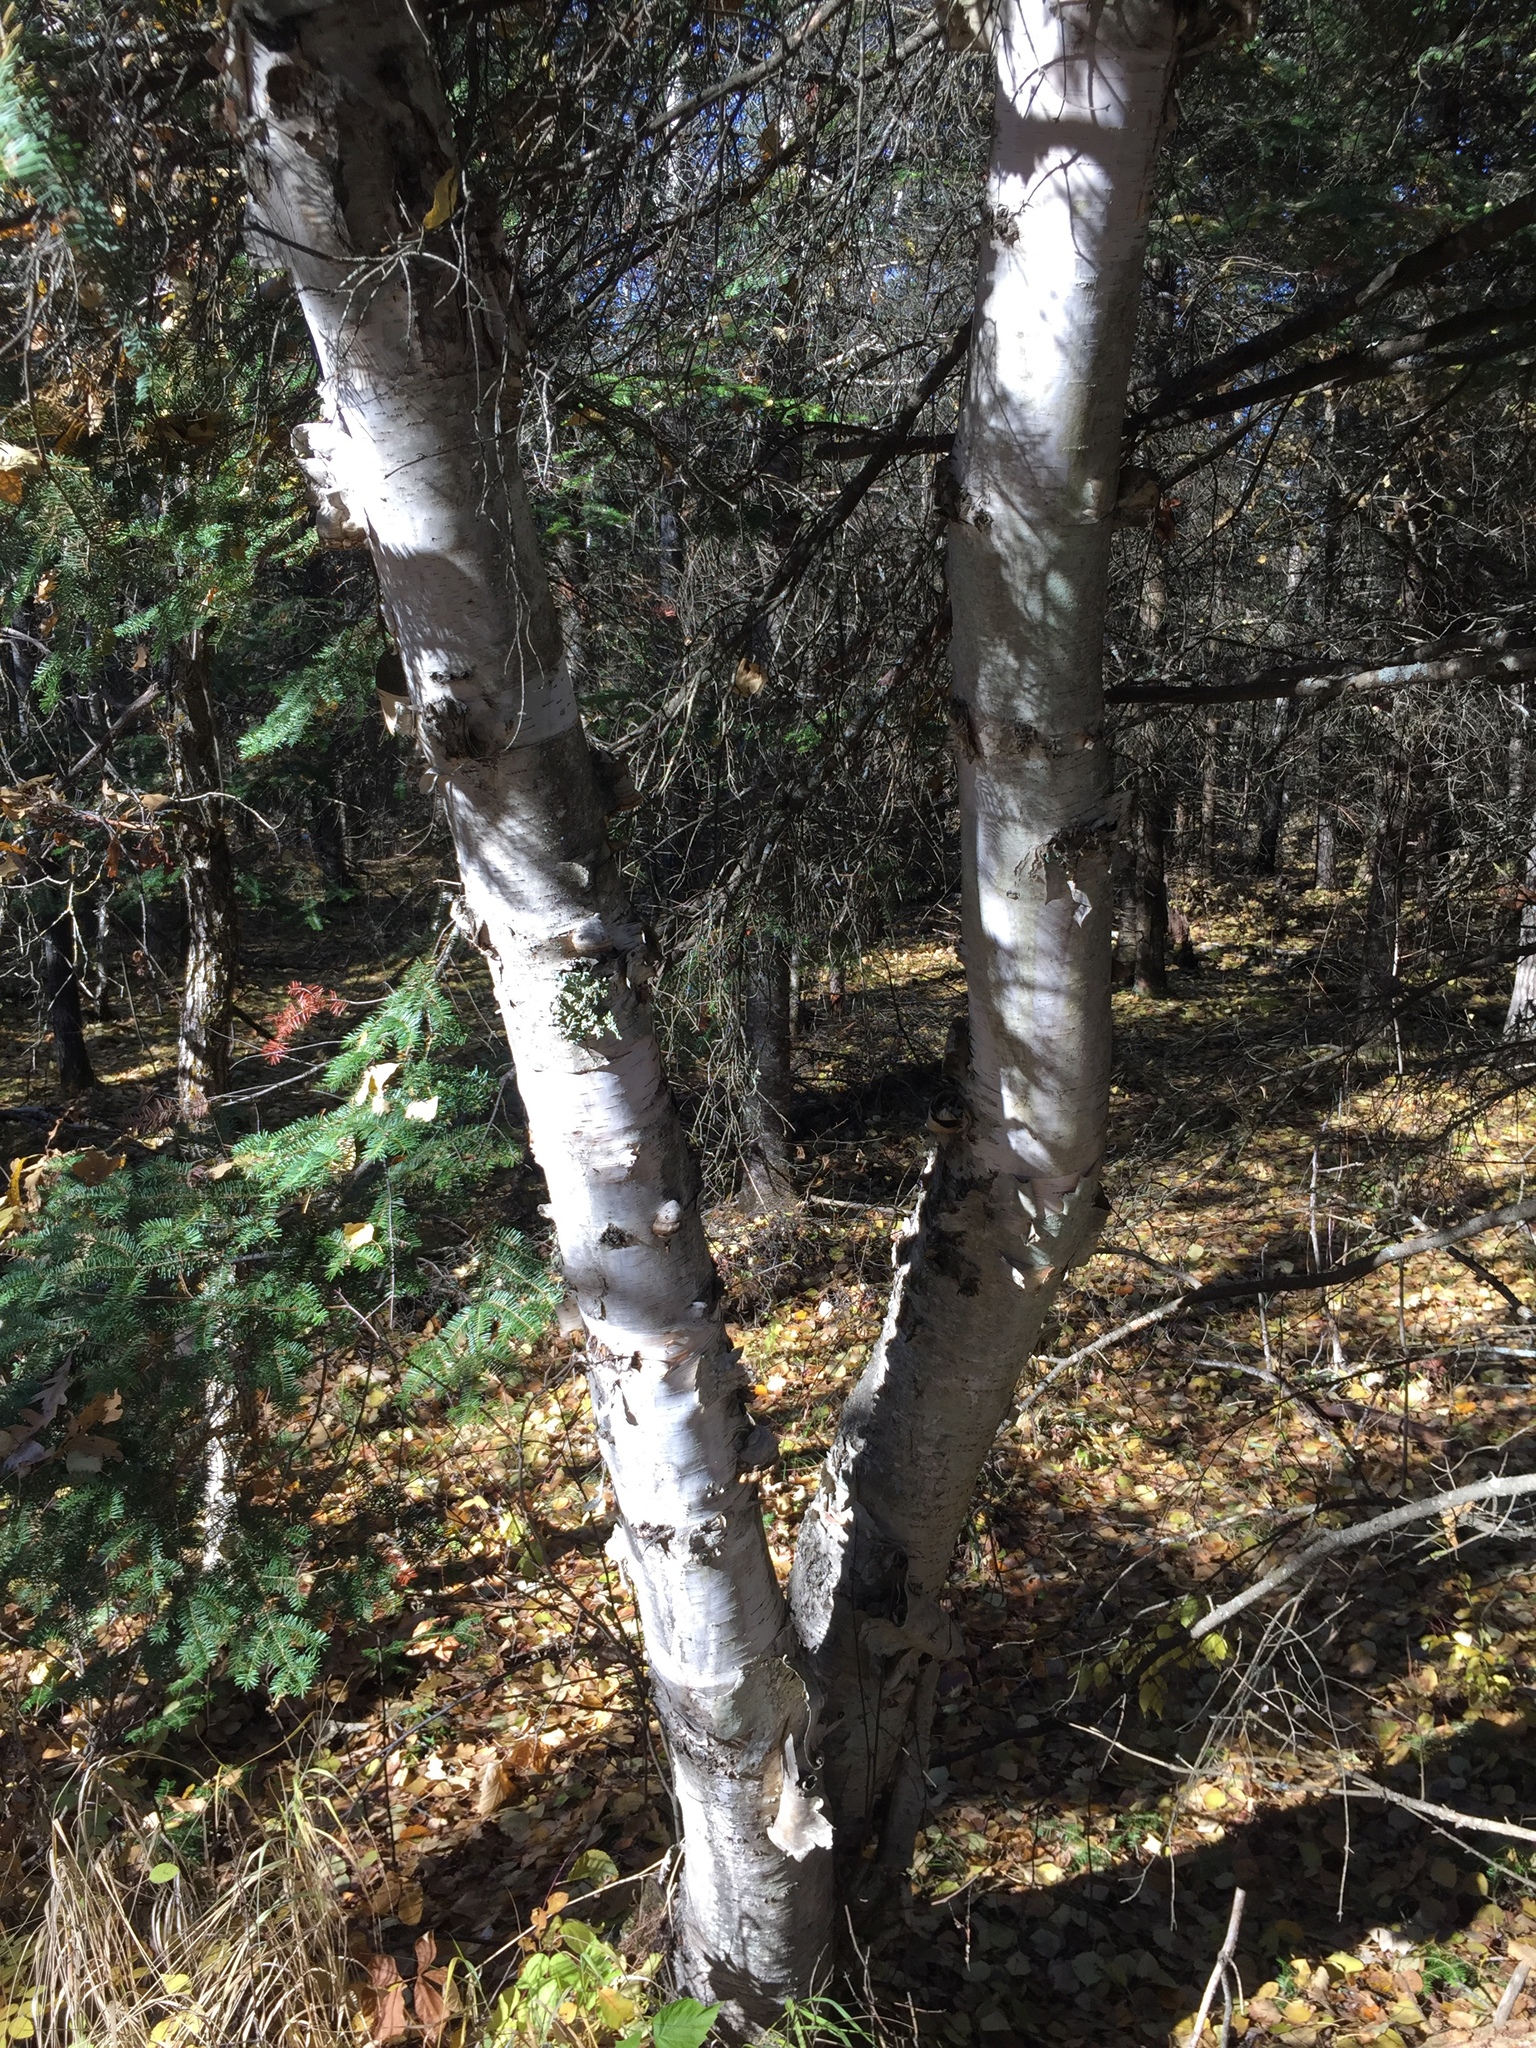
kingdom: Plantae
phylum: Tracheophyta
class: Magnoliopsida
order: Fagales
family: Betulaceae
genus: Betula
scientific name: Betula papyrifera
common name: Paper birch
